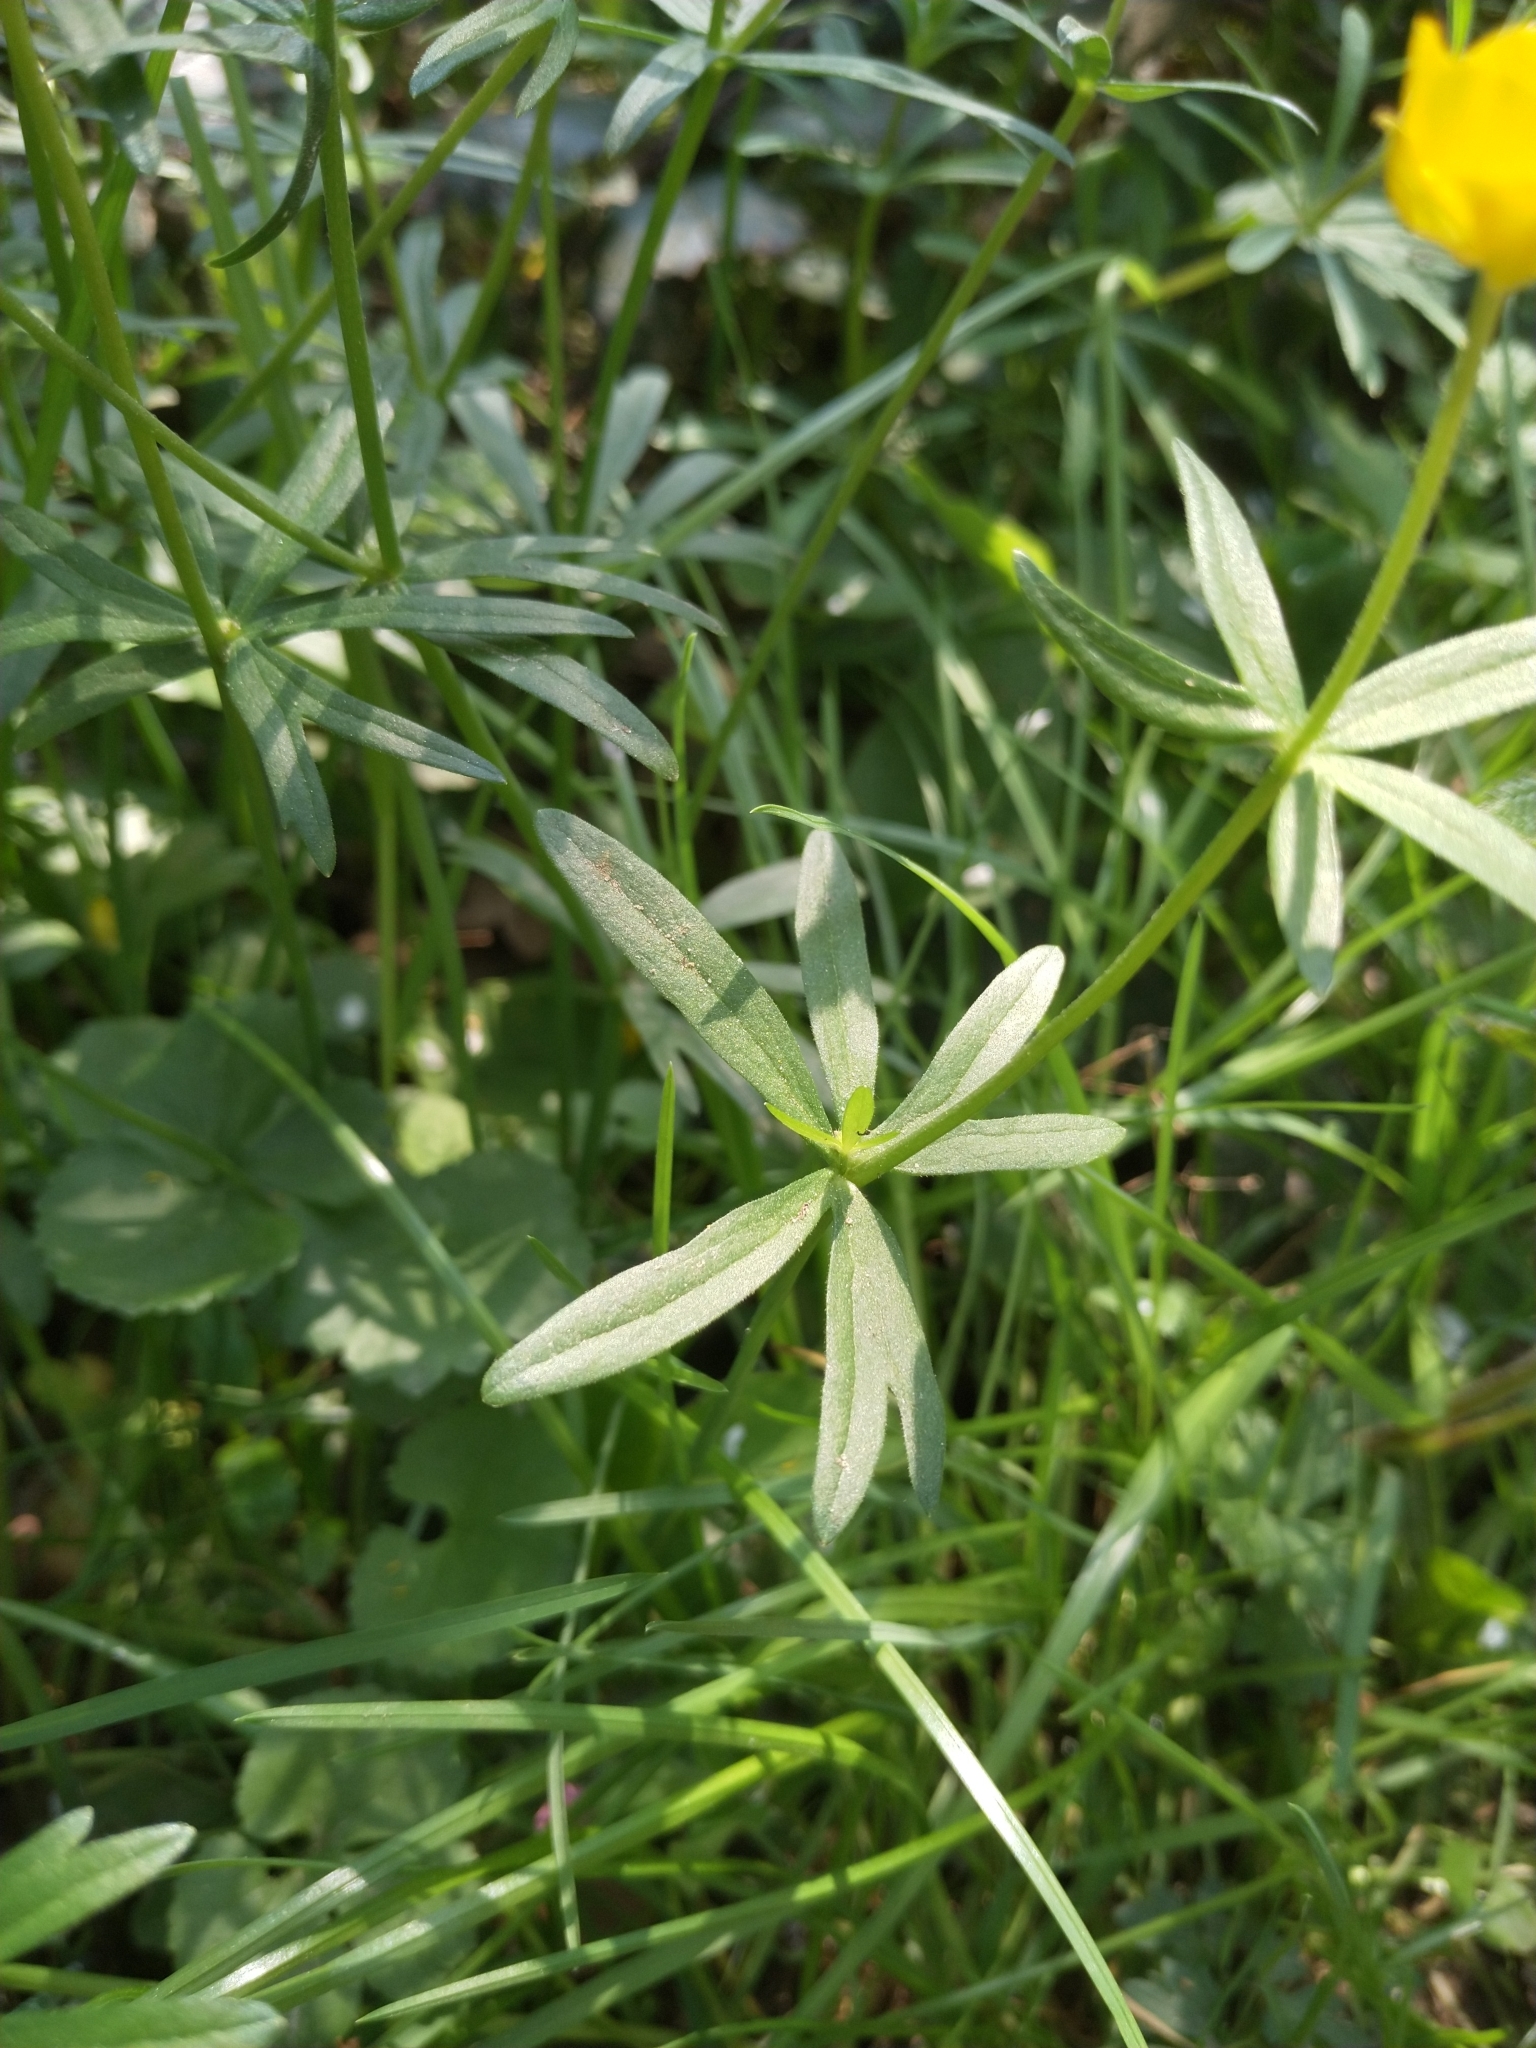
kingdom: Plantae
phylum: Tracheophyta
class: Magnoliopsida
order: Ranunculales
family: Ranunculaceae
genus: Ranunculus
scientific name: Ranunculus auricomus
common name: Goldilocks buttercup
